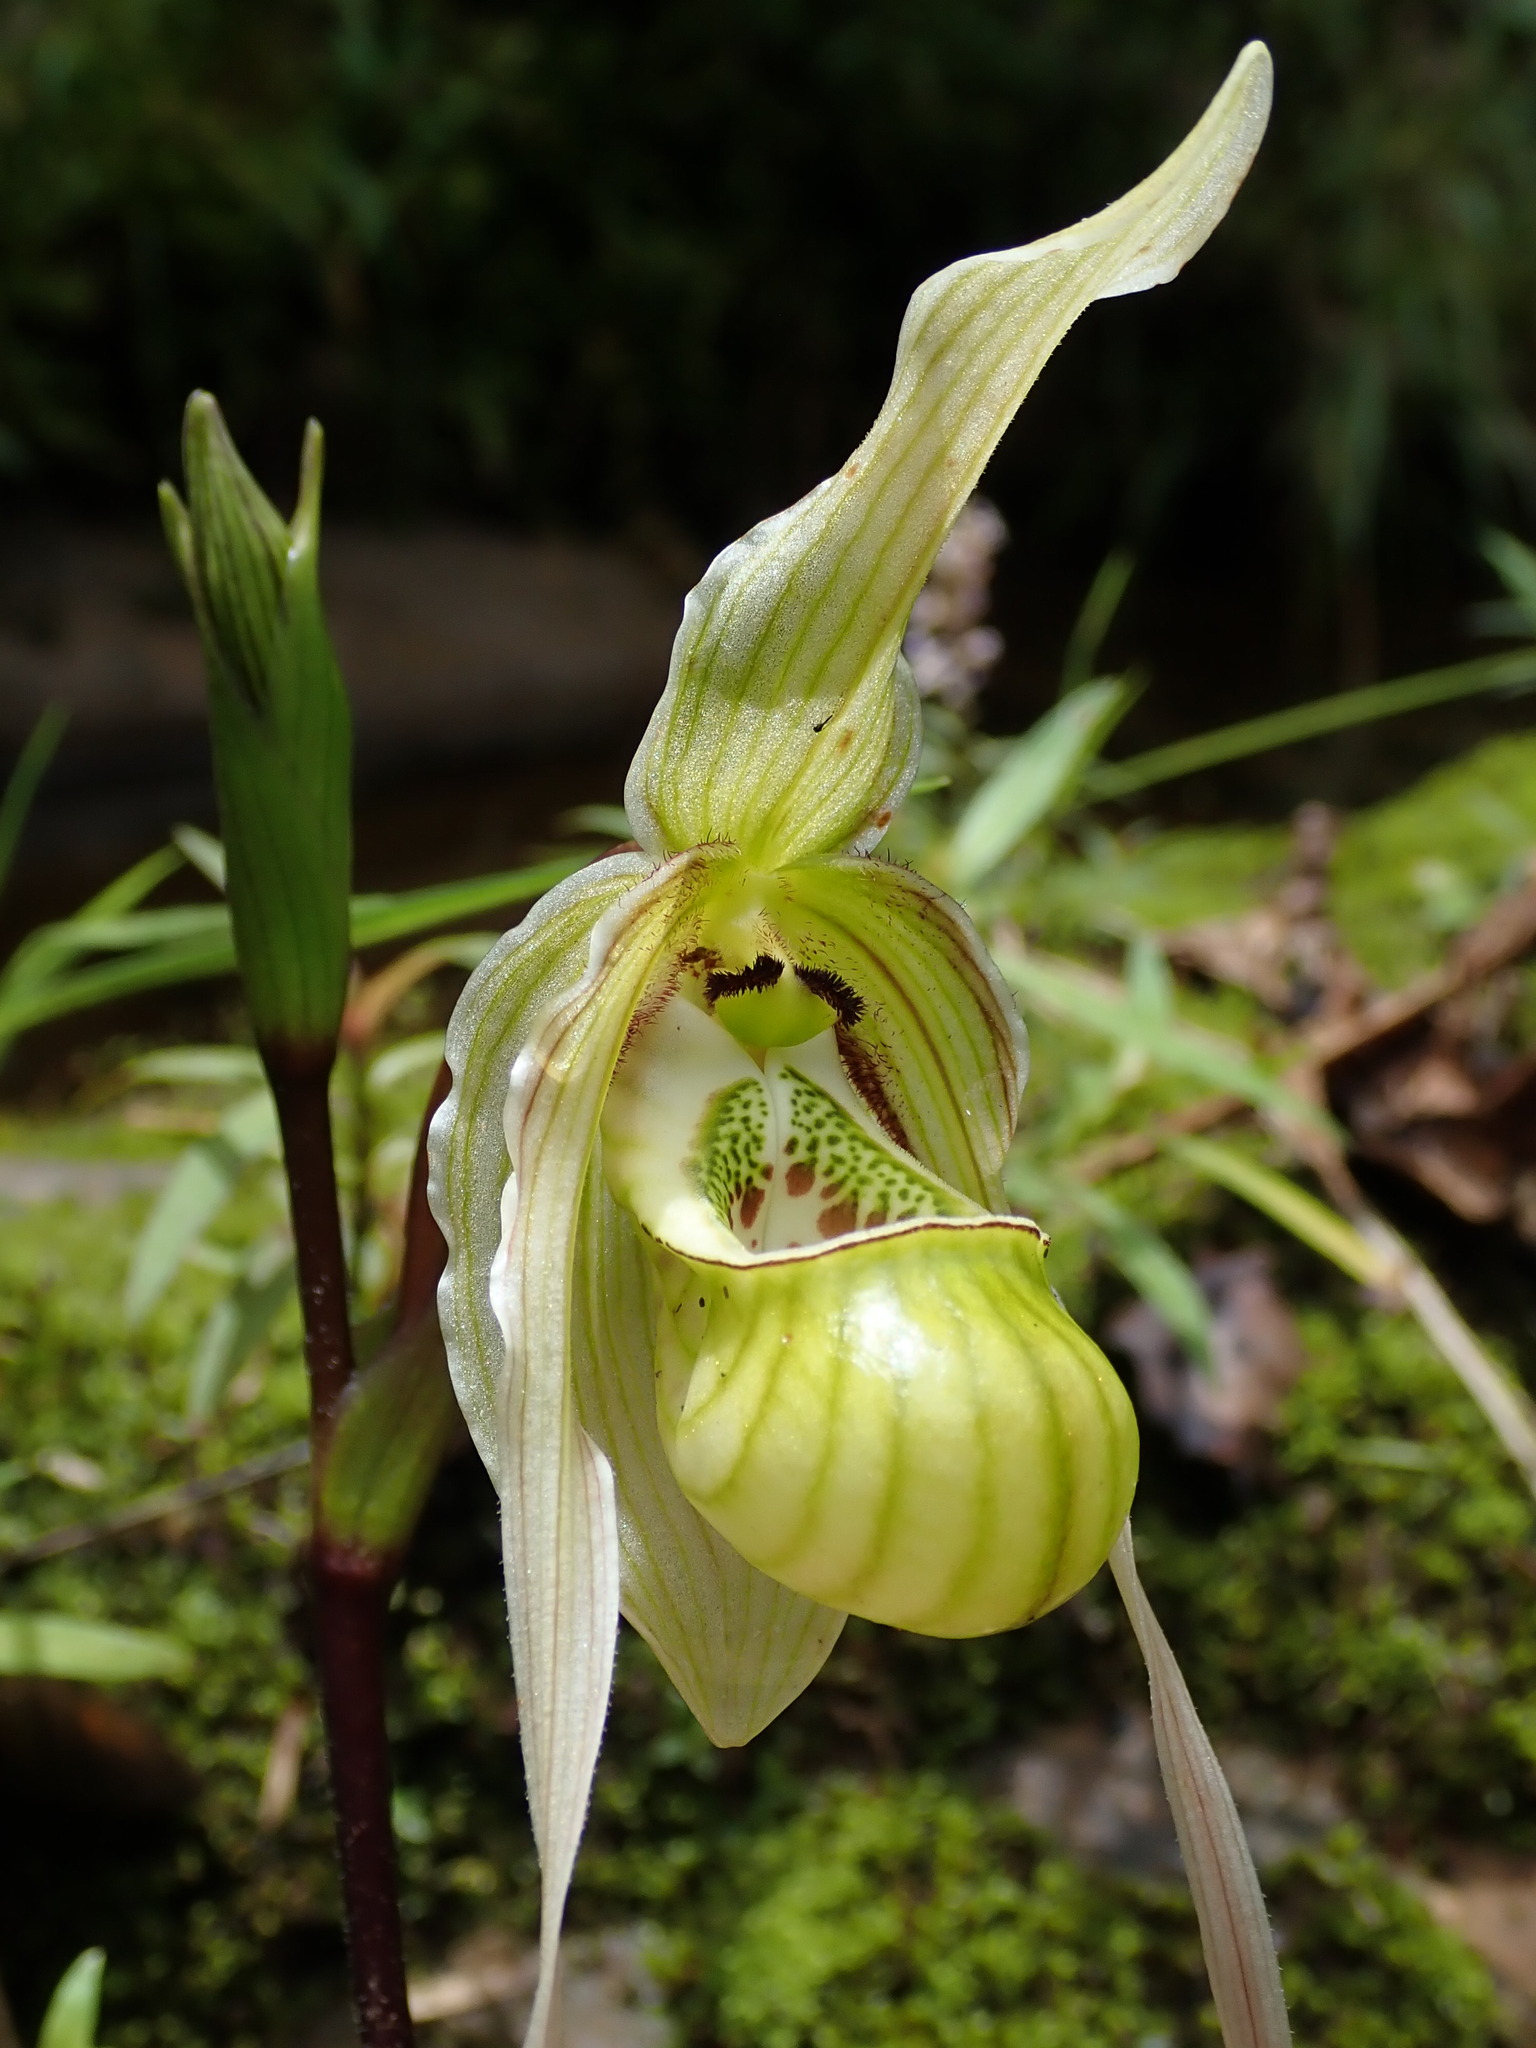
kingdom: Plantae
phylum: Tracheophyta
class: Liliopsida
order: Asparagales
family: Orchidaceae
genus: Phragmipedium
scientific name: Phragmipedium pearcei
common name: Pearce's phragmipedium
